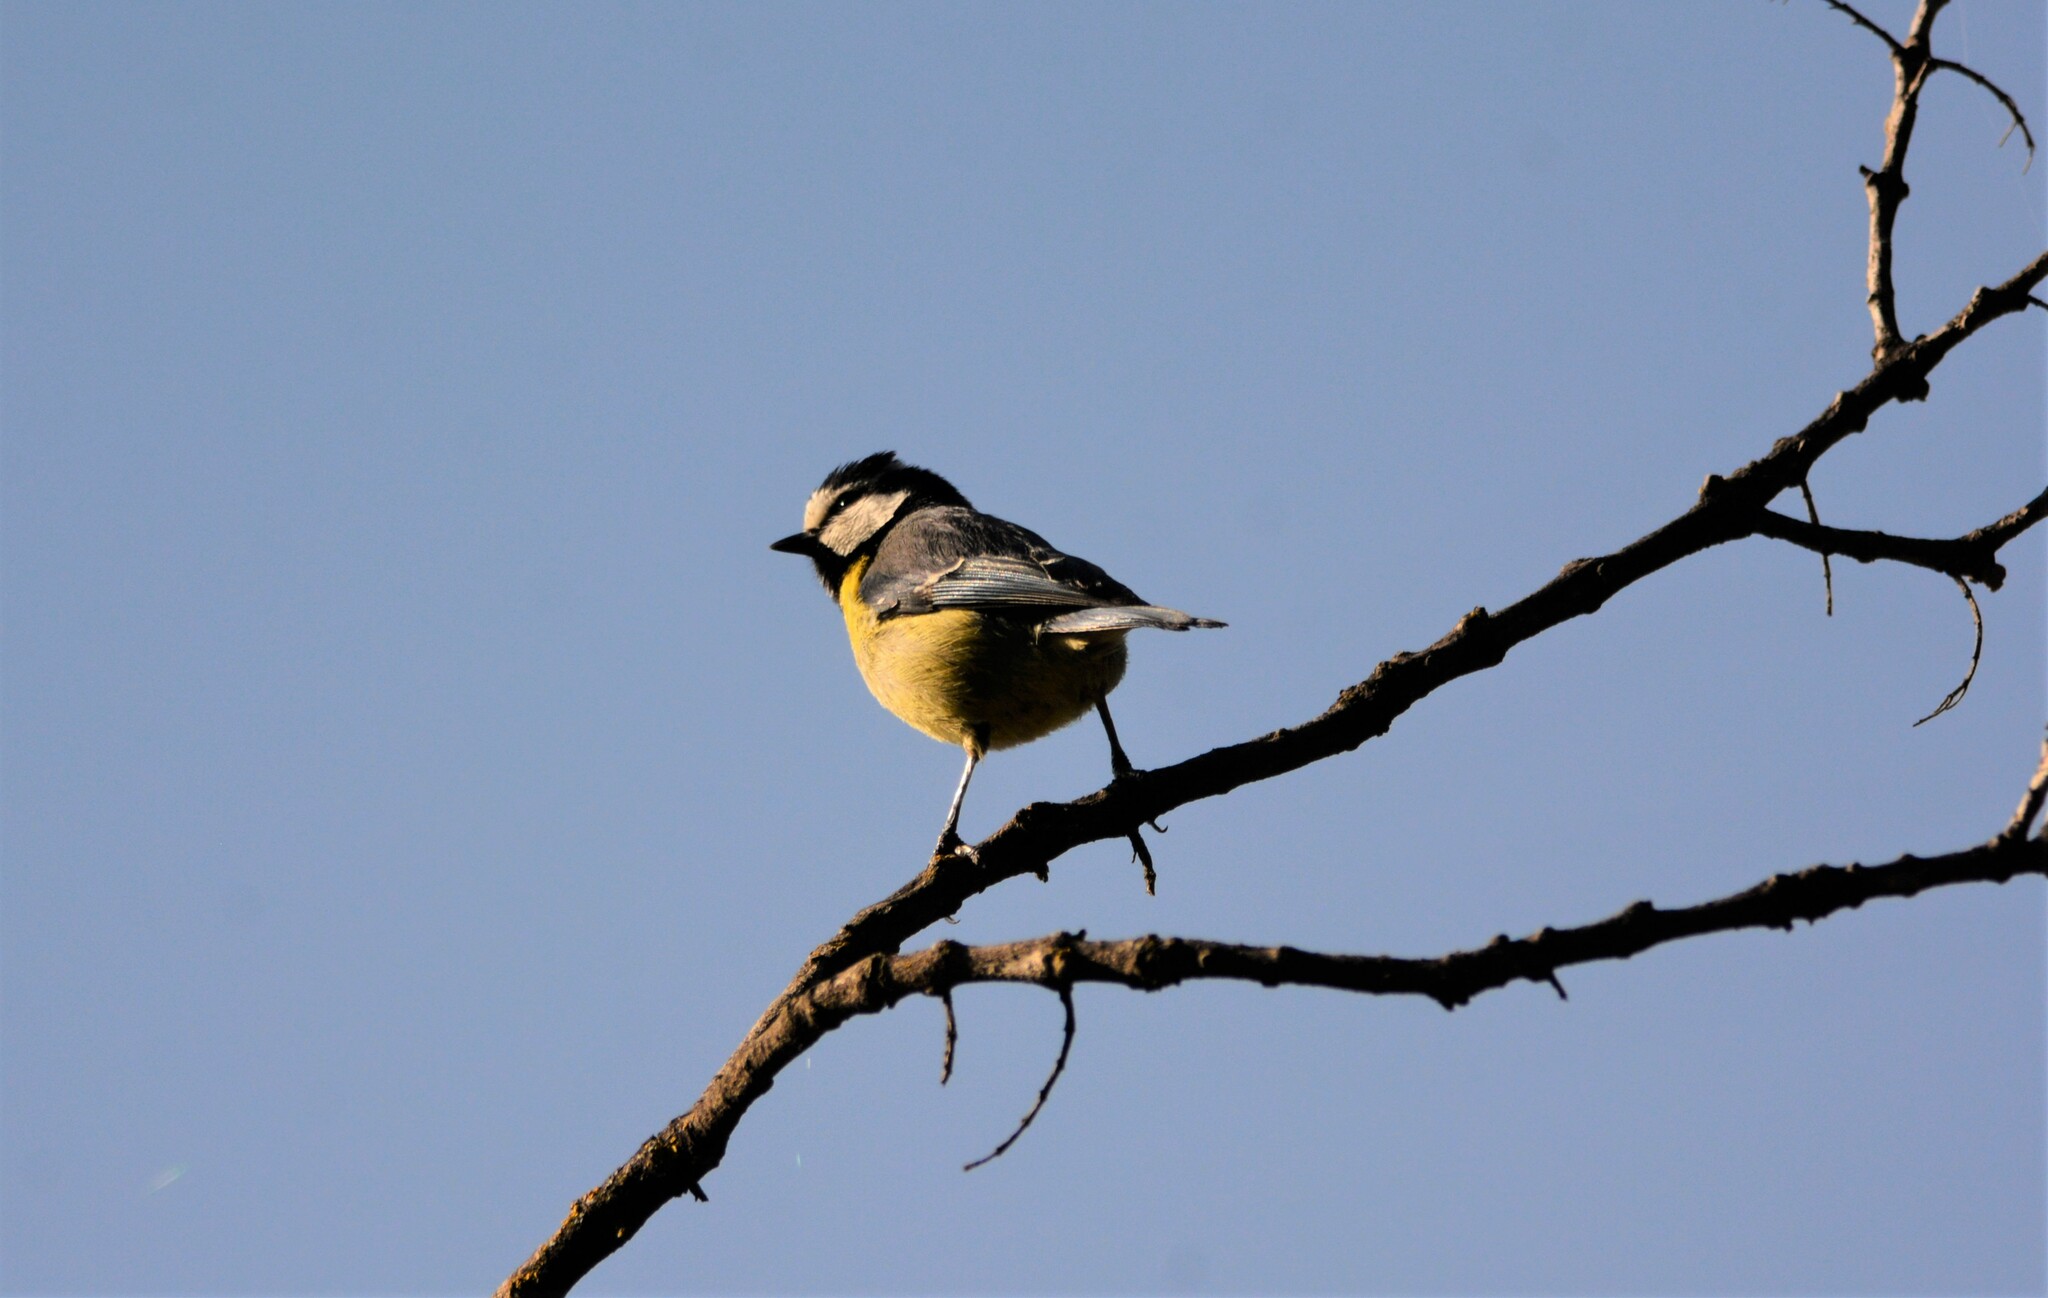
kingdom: Animalia
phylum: Chordata
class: Aves
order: Passeriformes
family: Paridae
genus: Cyanistes
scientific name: Cyanistes teneriffae
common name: African blue tit
